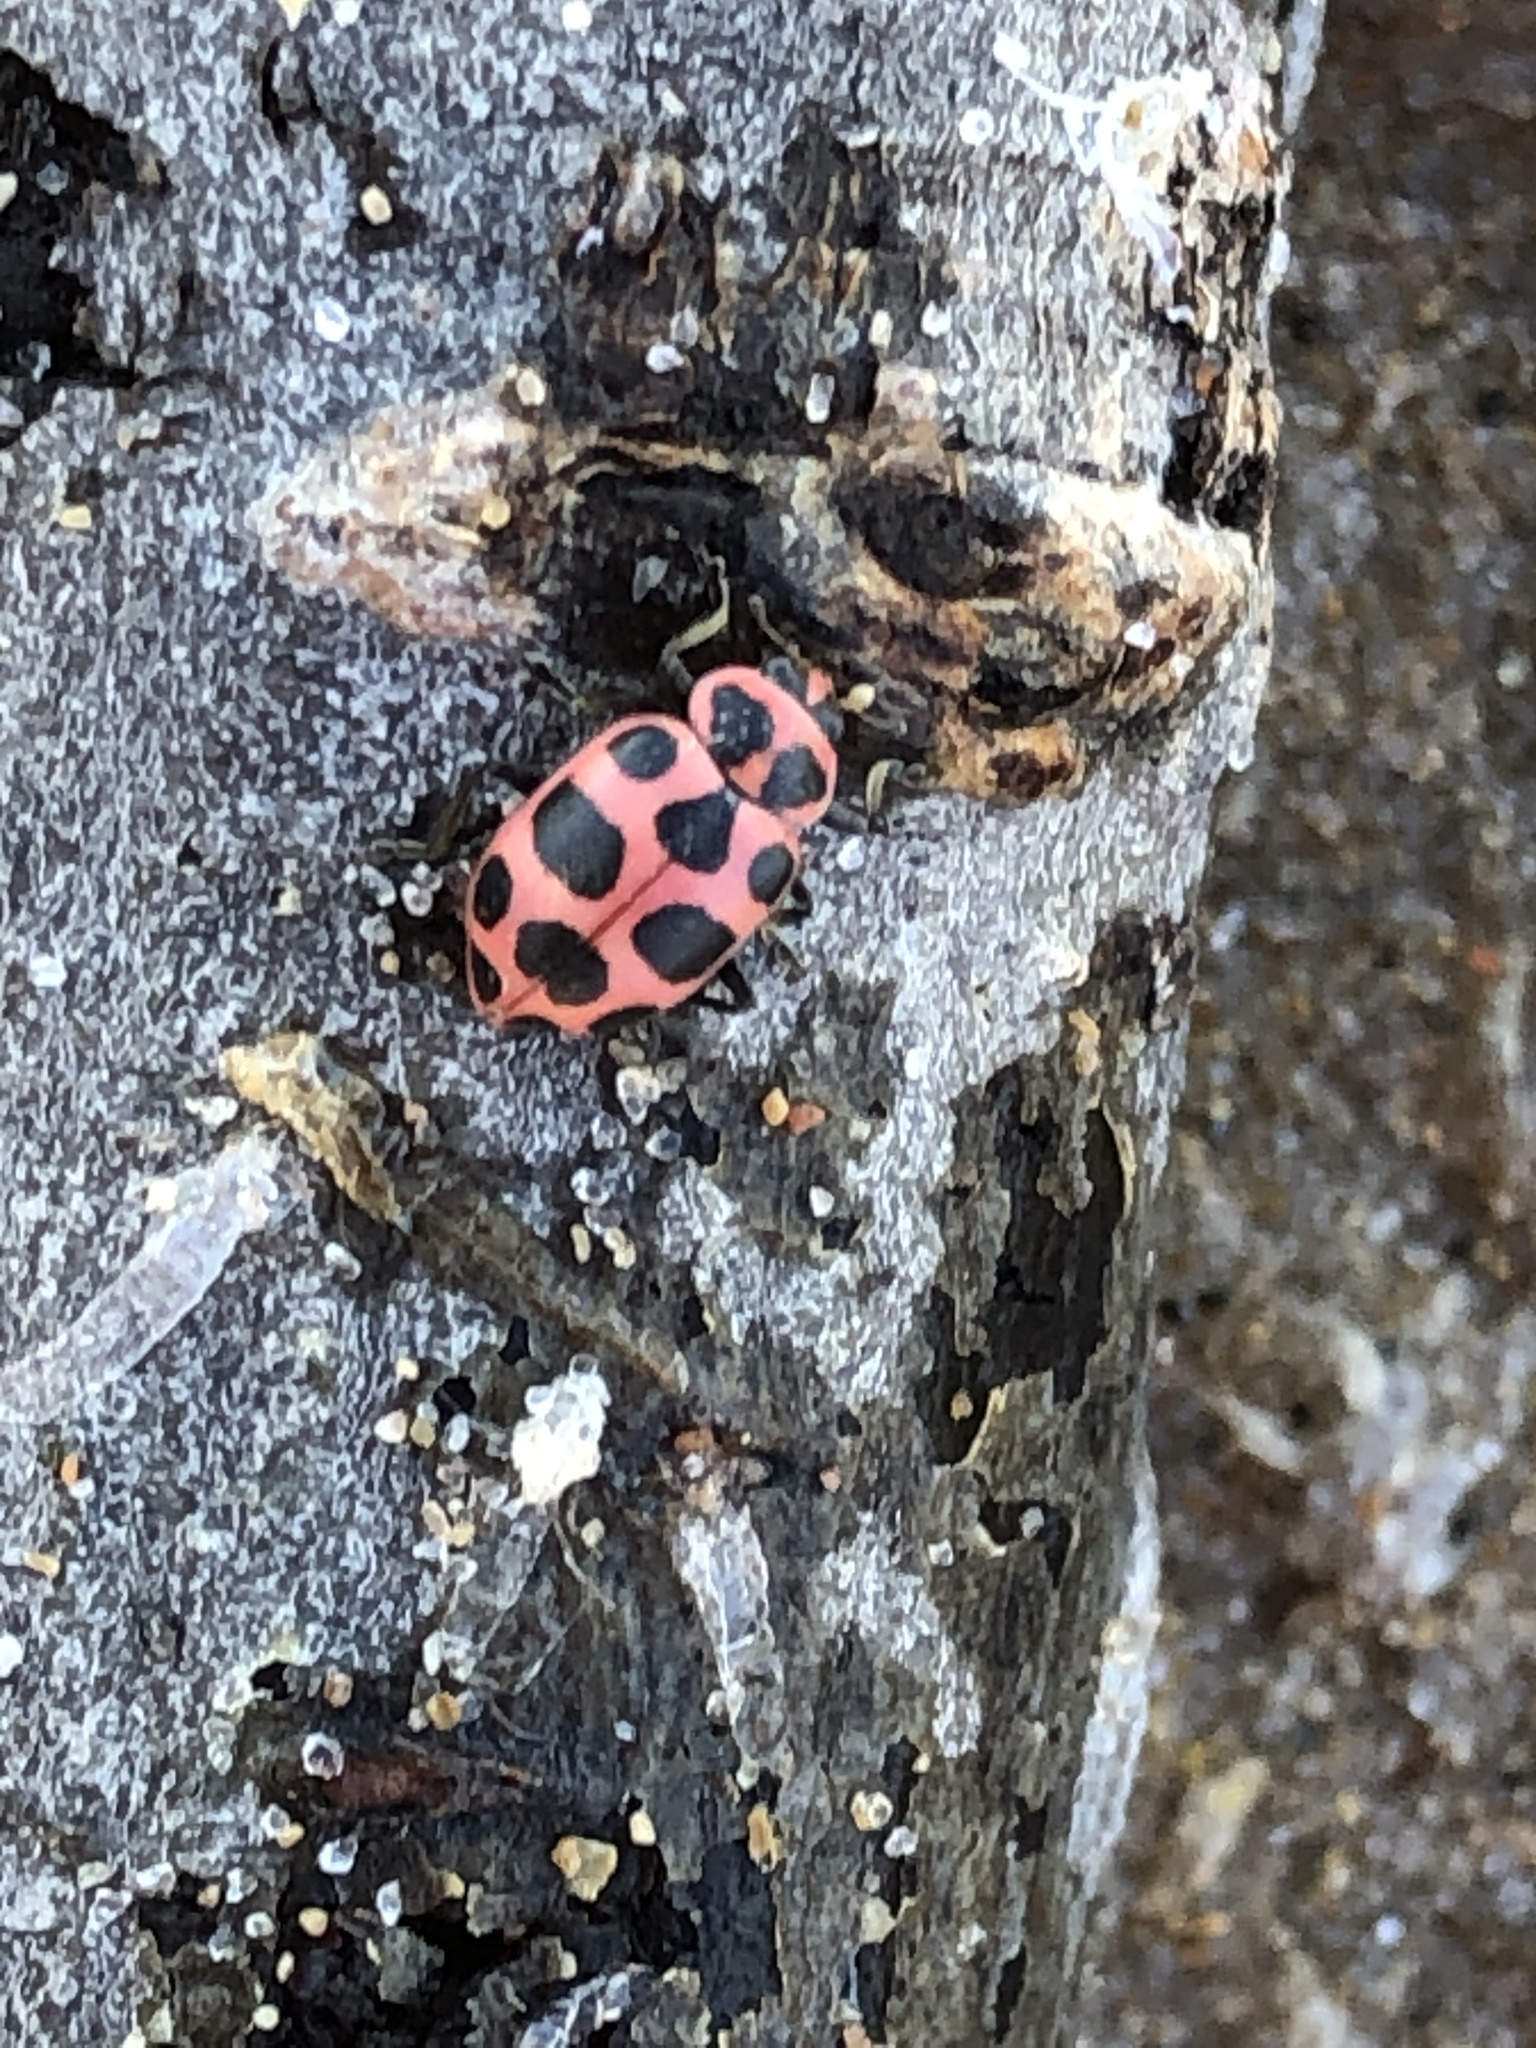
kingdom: Animalia
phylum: Arthropoda
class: Insecta
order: Coleoptera
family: Coccinellidae
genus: Coleomegilla
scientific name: Coleomegilla maculata
